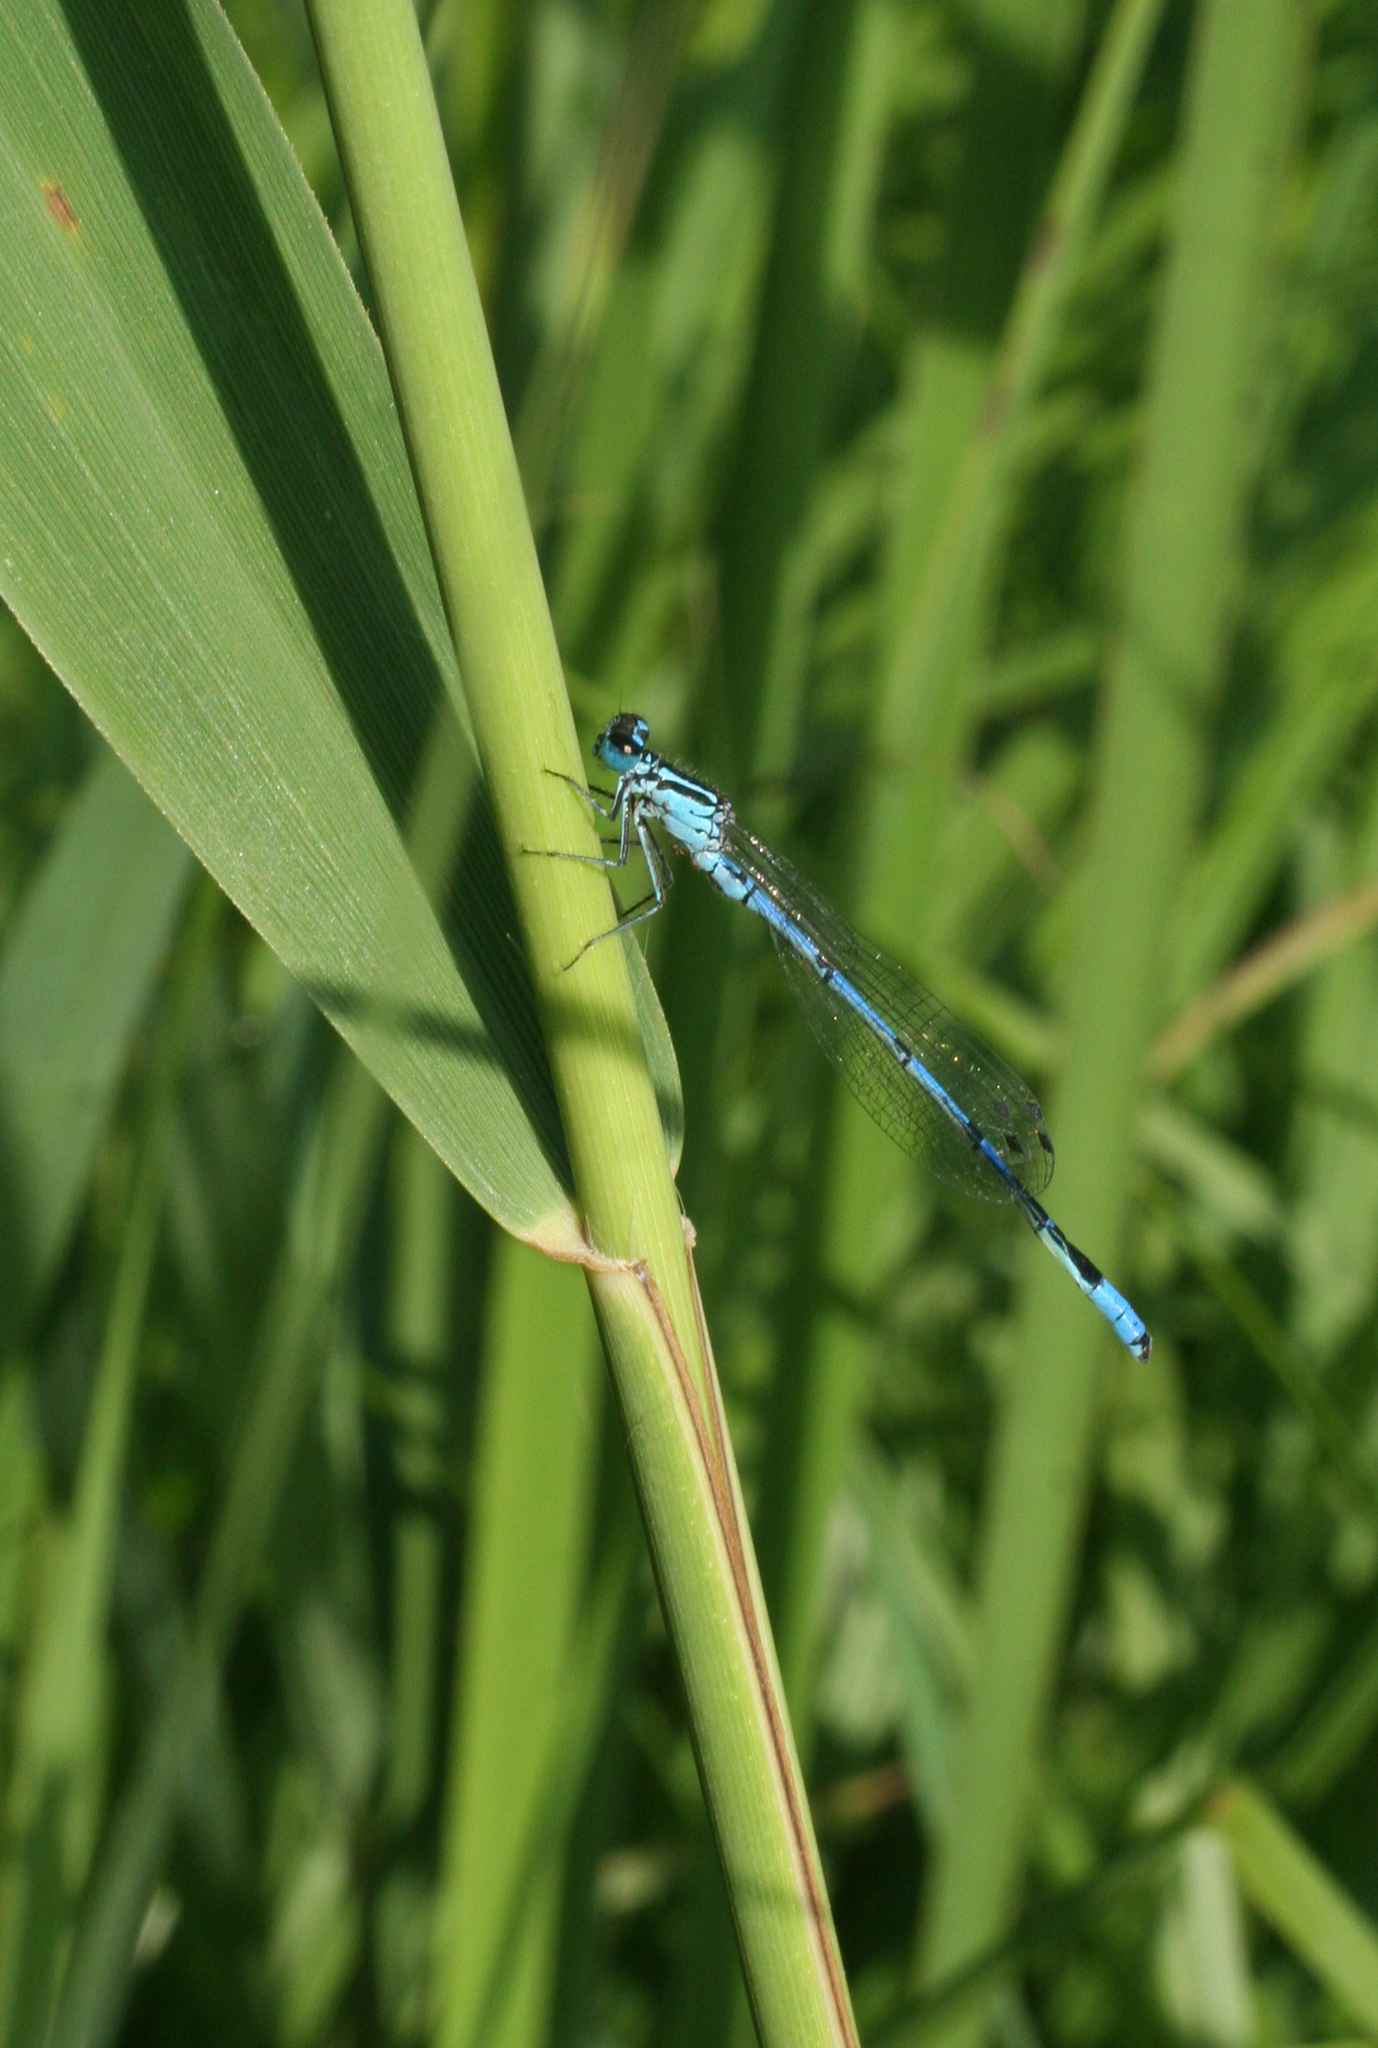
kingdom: Animalia
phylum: Arthropoda
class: Insecta
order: Odonata
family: Coenagrionidae
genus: Coenagrion
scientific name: Coenagrion australocaspicum
